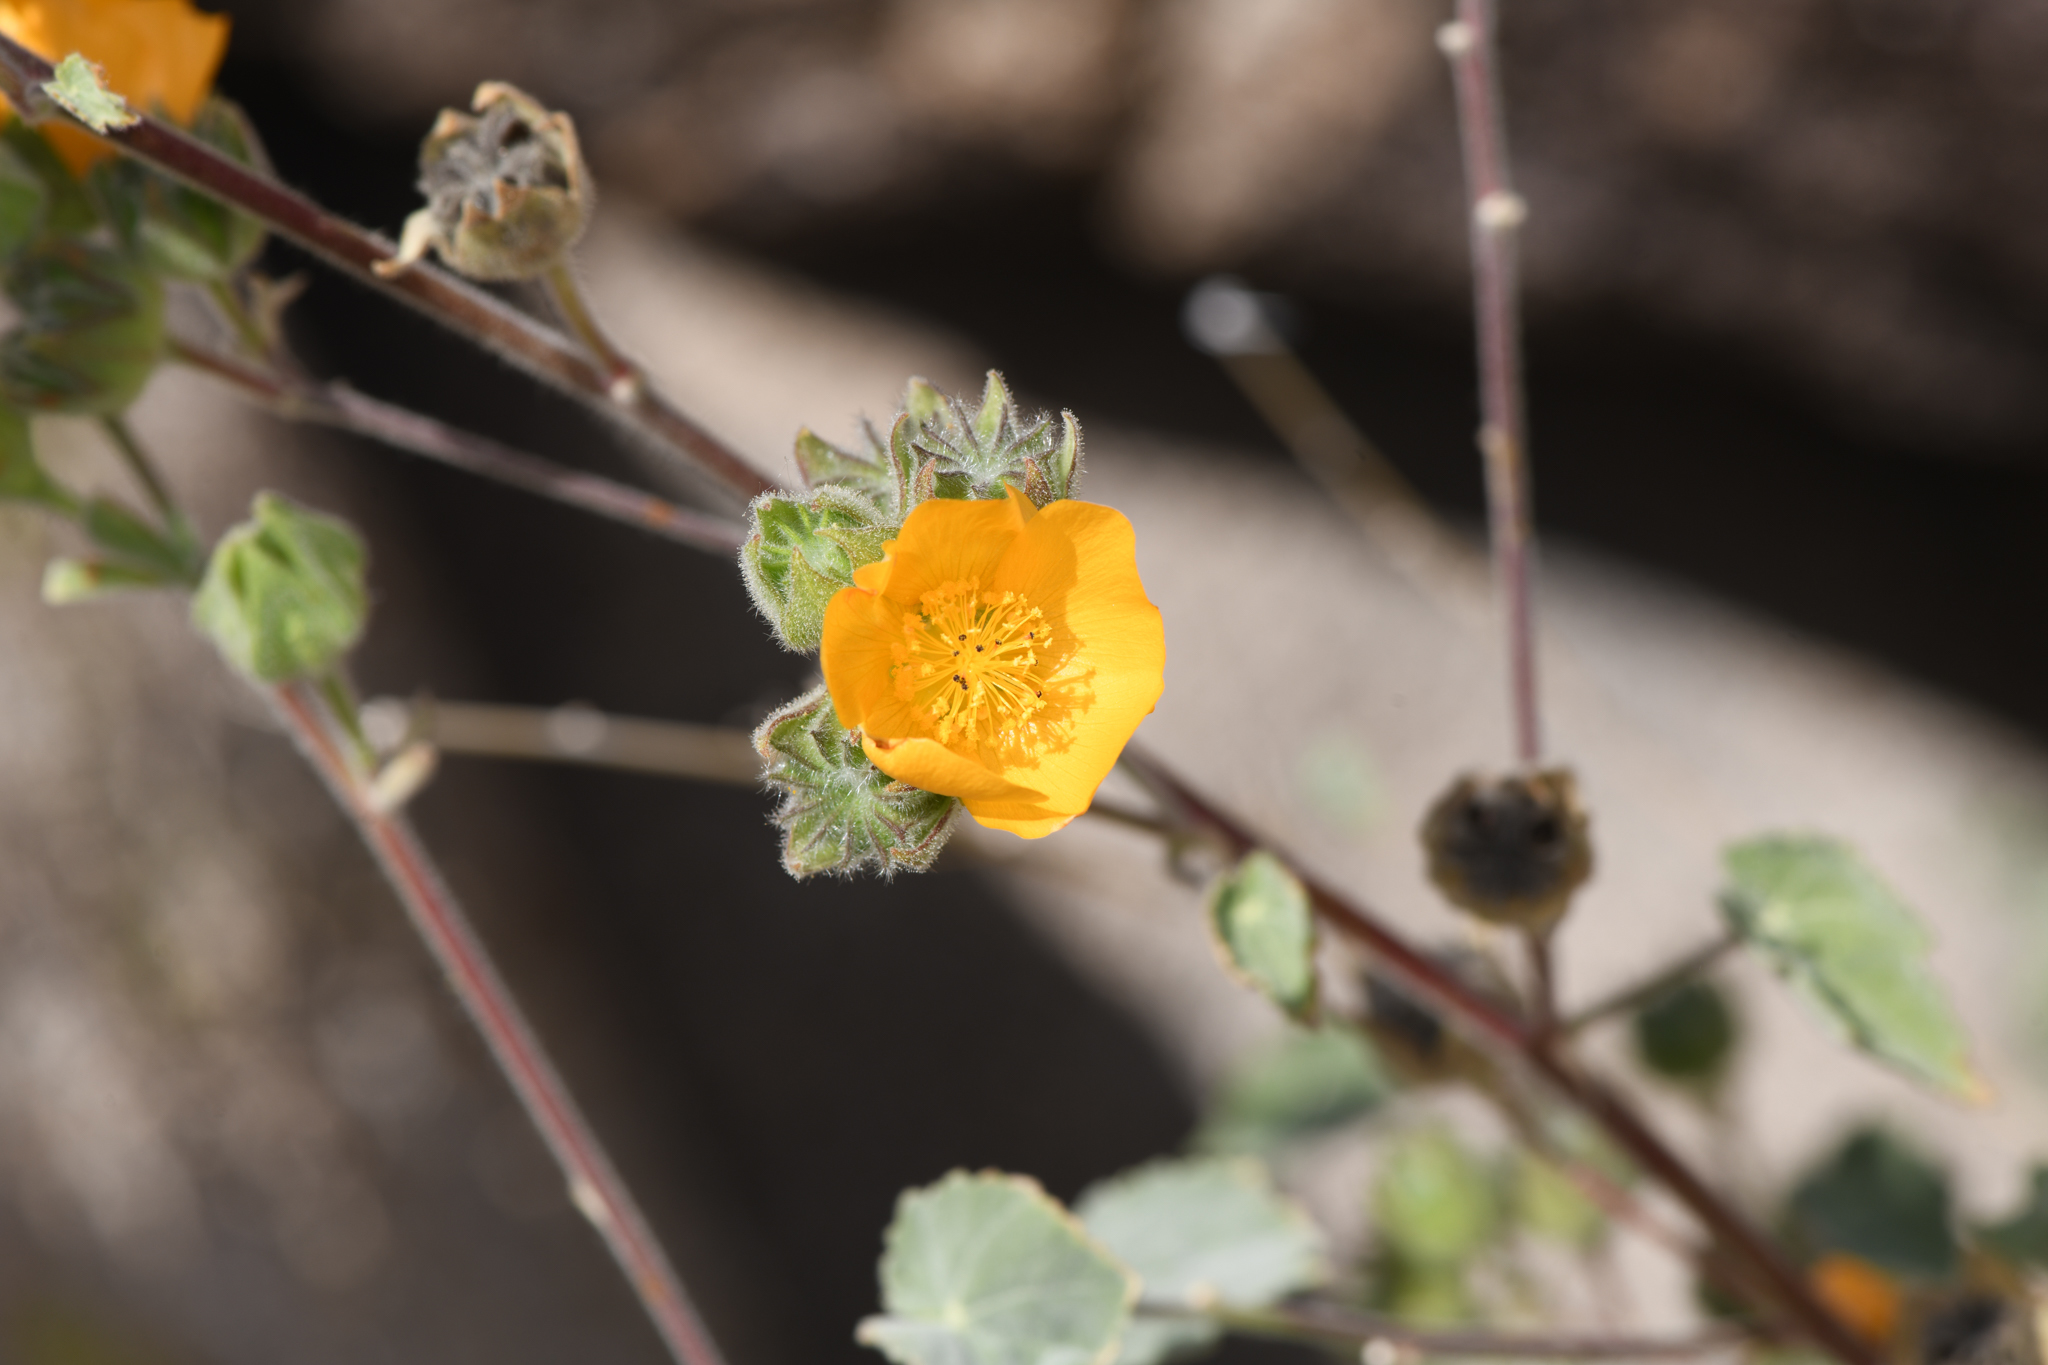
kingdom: Plantae
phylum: Tracheophyta
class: Magnoliopsida
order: Malvales
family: Malvaceae
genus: Abutilon
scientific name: Abutilon palmeri
